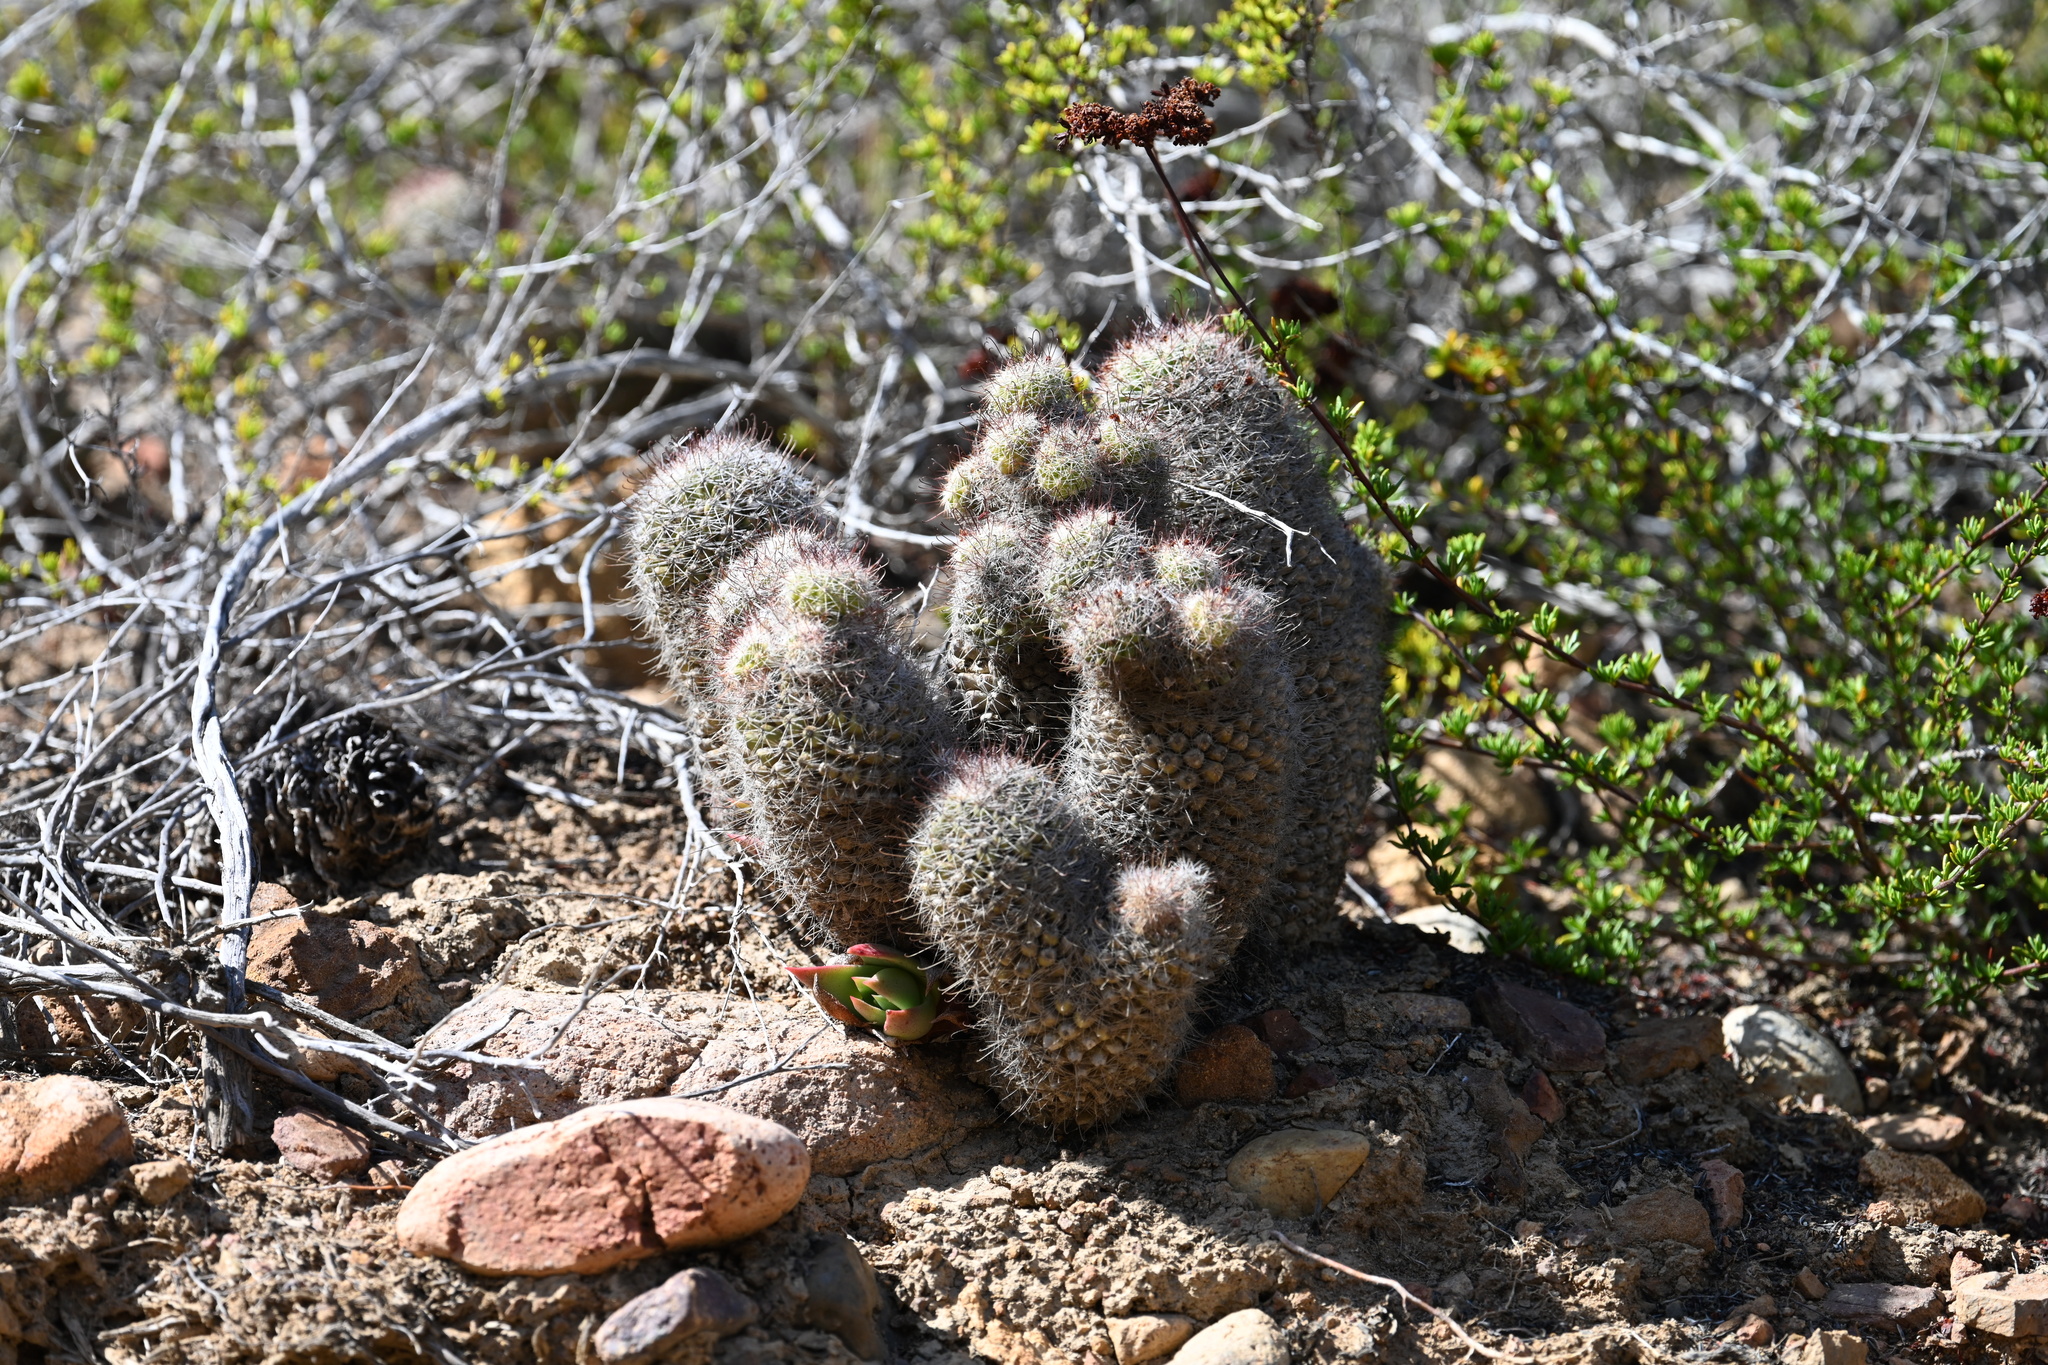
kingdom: Plantae
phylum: Tracheophyta
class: Magnoliopsida
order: Caryophyllales
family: Cactaceae
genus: Cochemiea
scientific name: Cochemiea dioica
